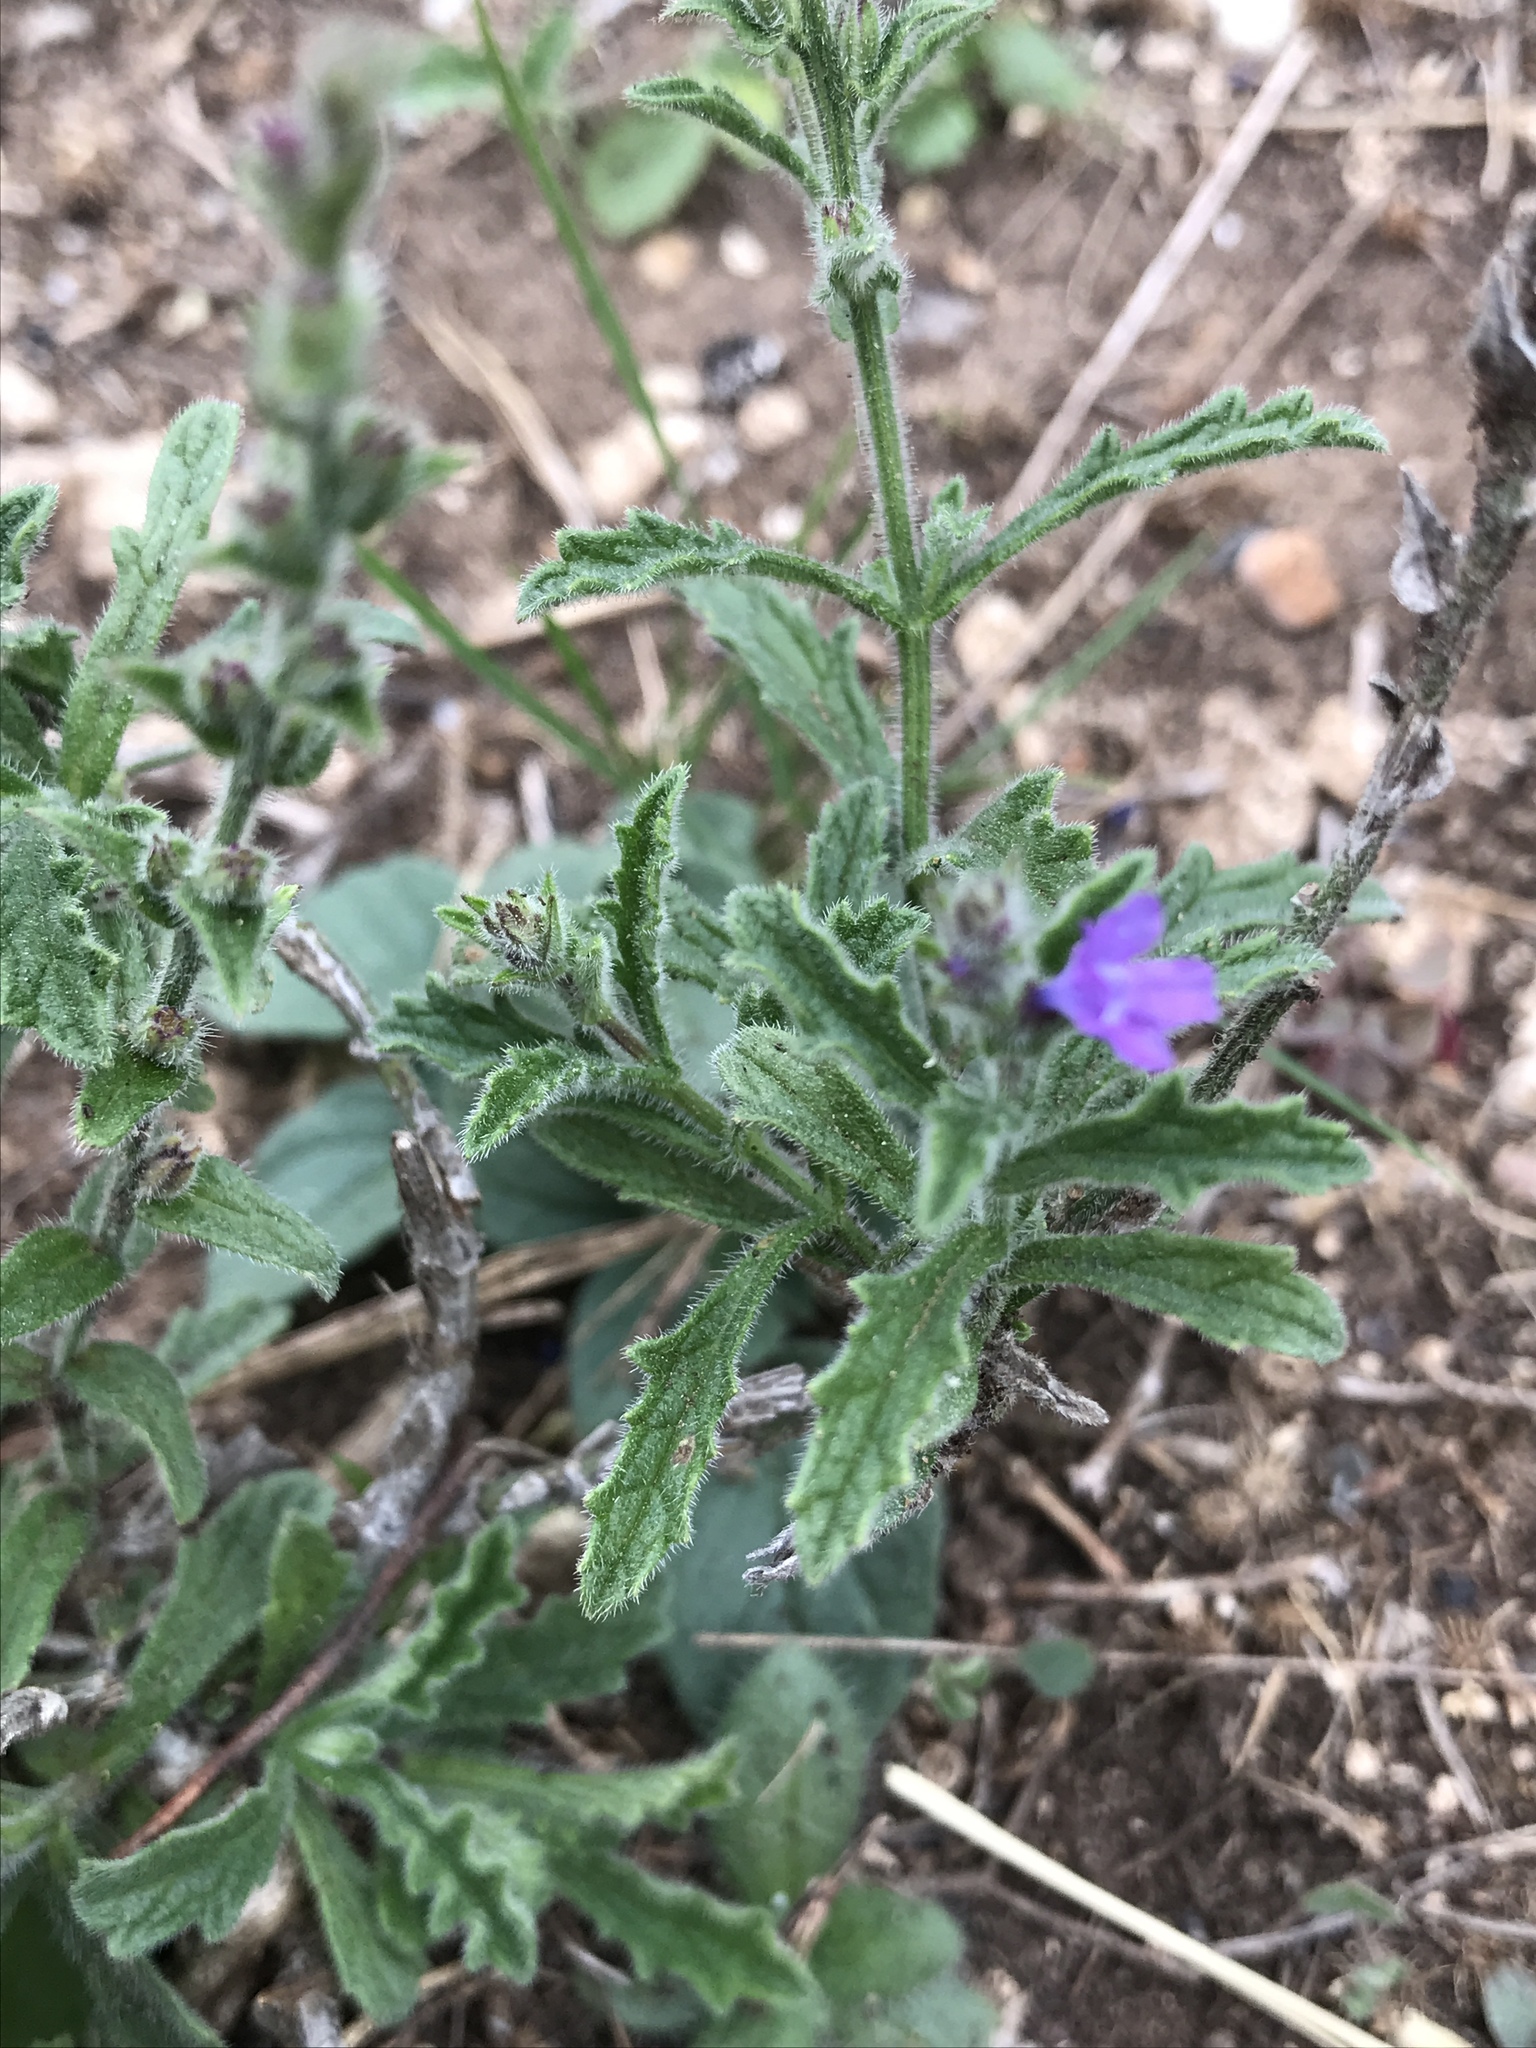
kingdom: Plantae
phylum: Tracheophyta
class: Magnoliopsida
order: Lamiales
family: Verbenaceae
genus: Verbena
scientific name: Verbena canescens
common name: Gray vervain
